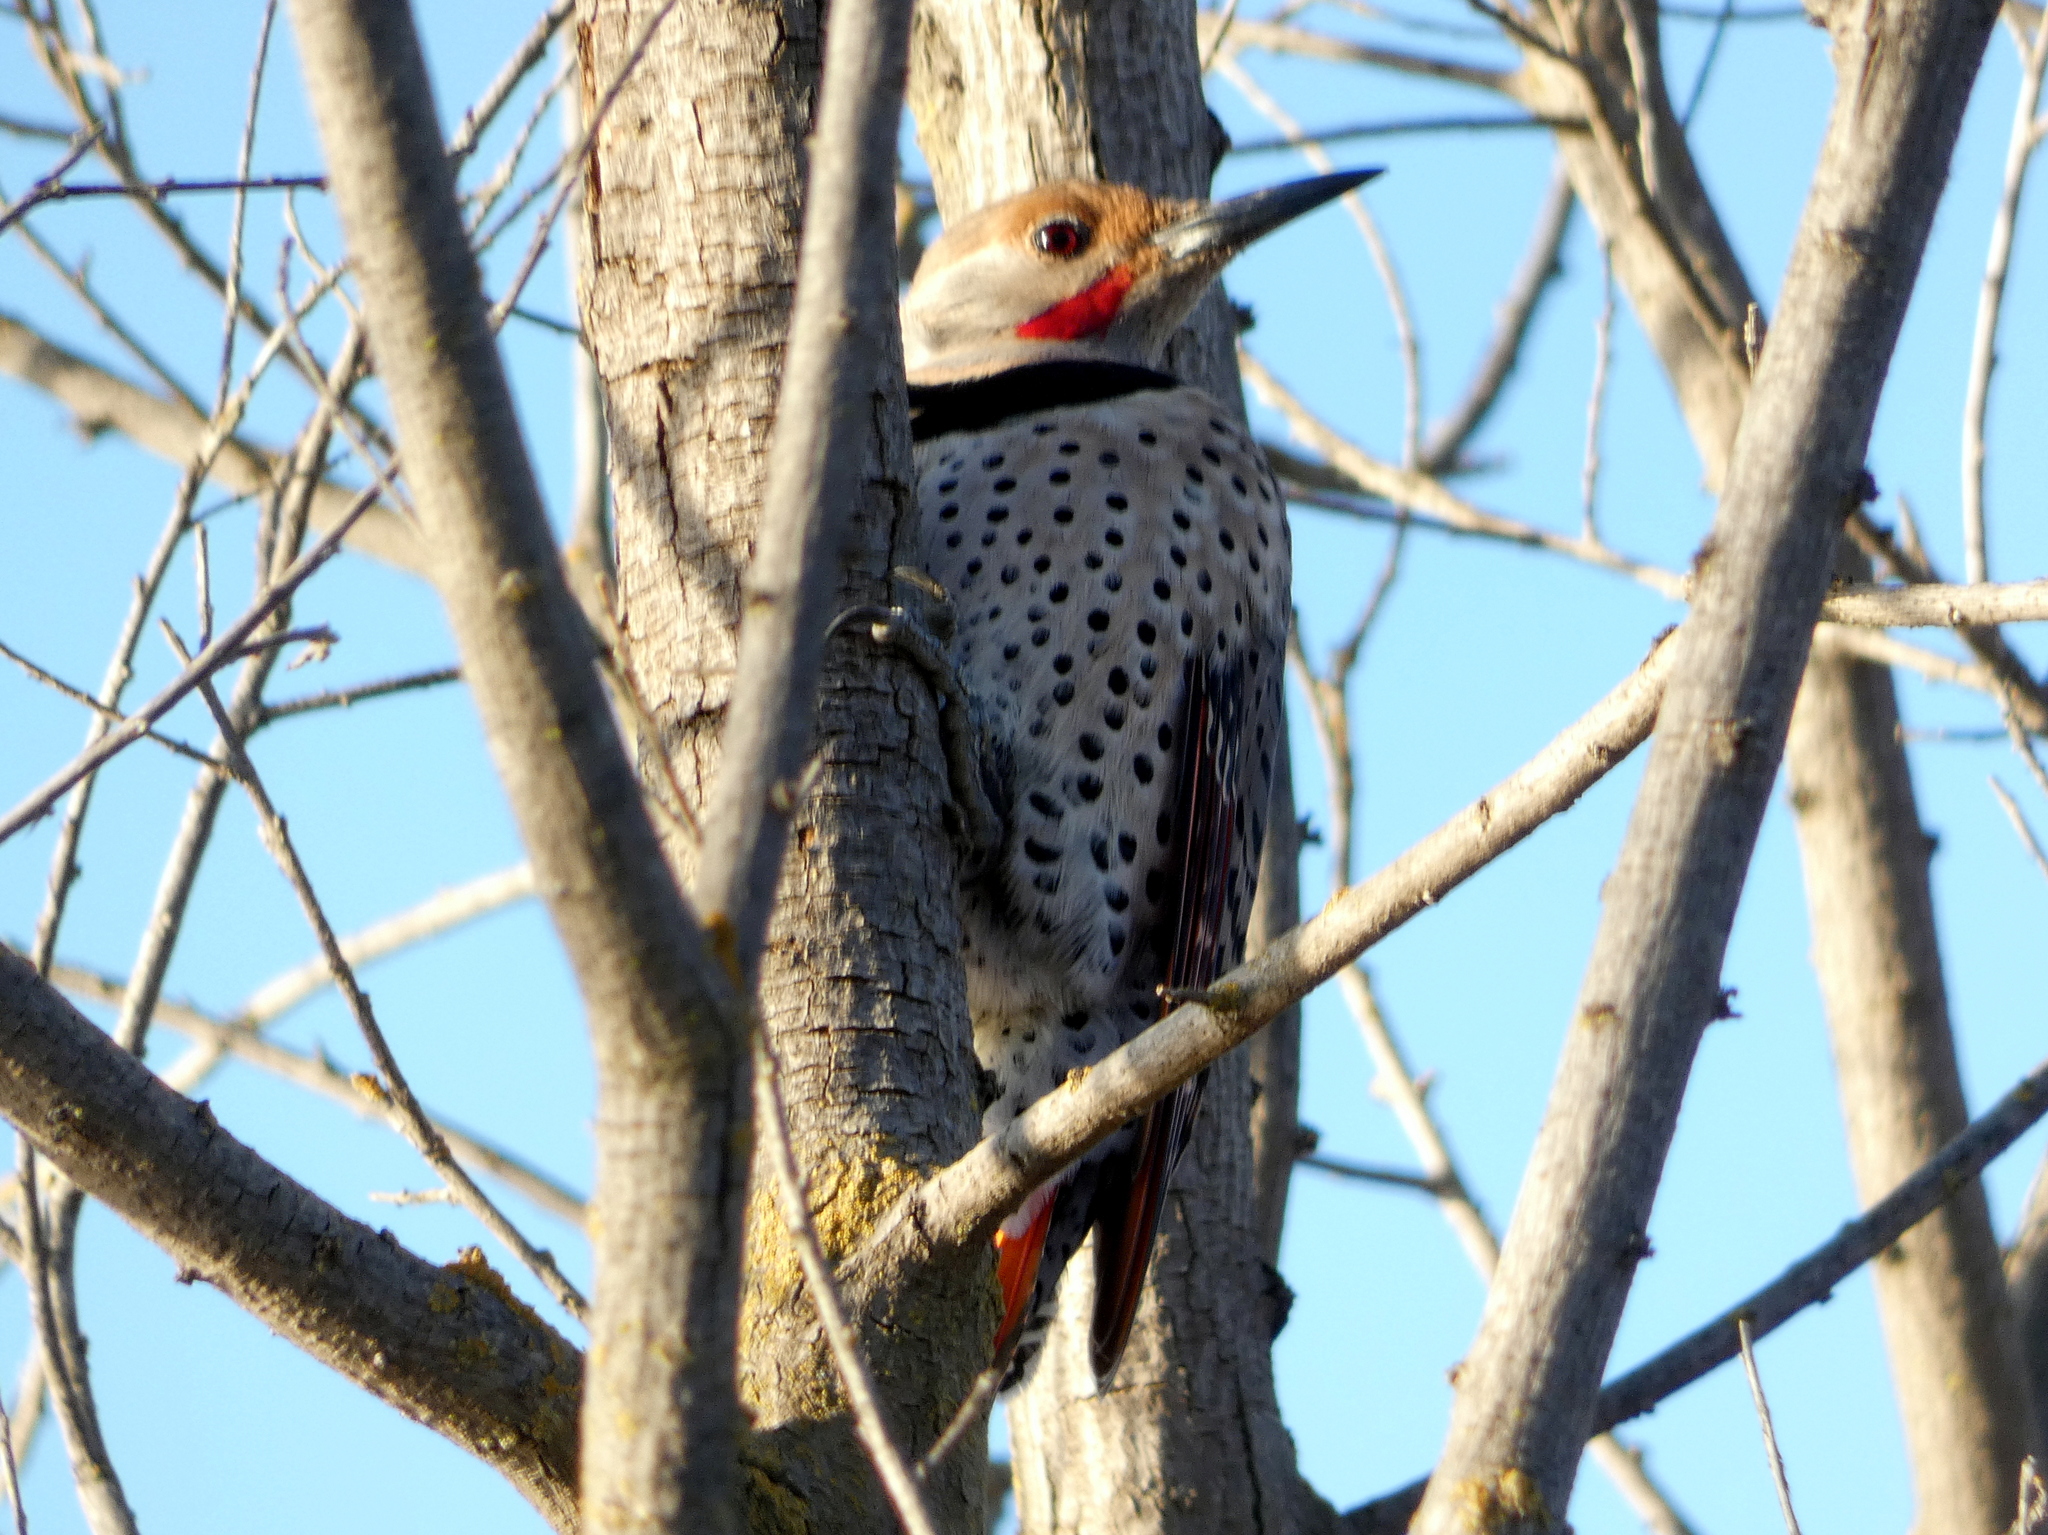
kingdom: Animalia
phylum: Chordata
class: Aves
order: Piciformes
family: Picidae
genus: Colaptes
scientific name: Colaptes auratus
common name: Northern flicker
